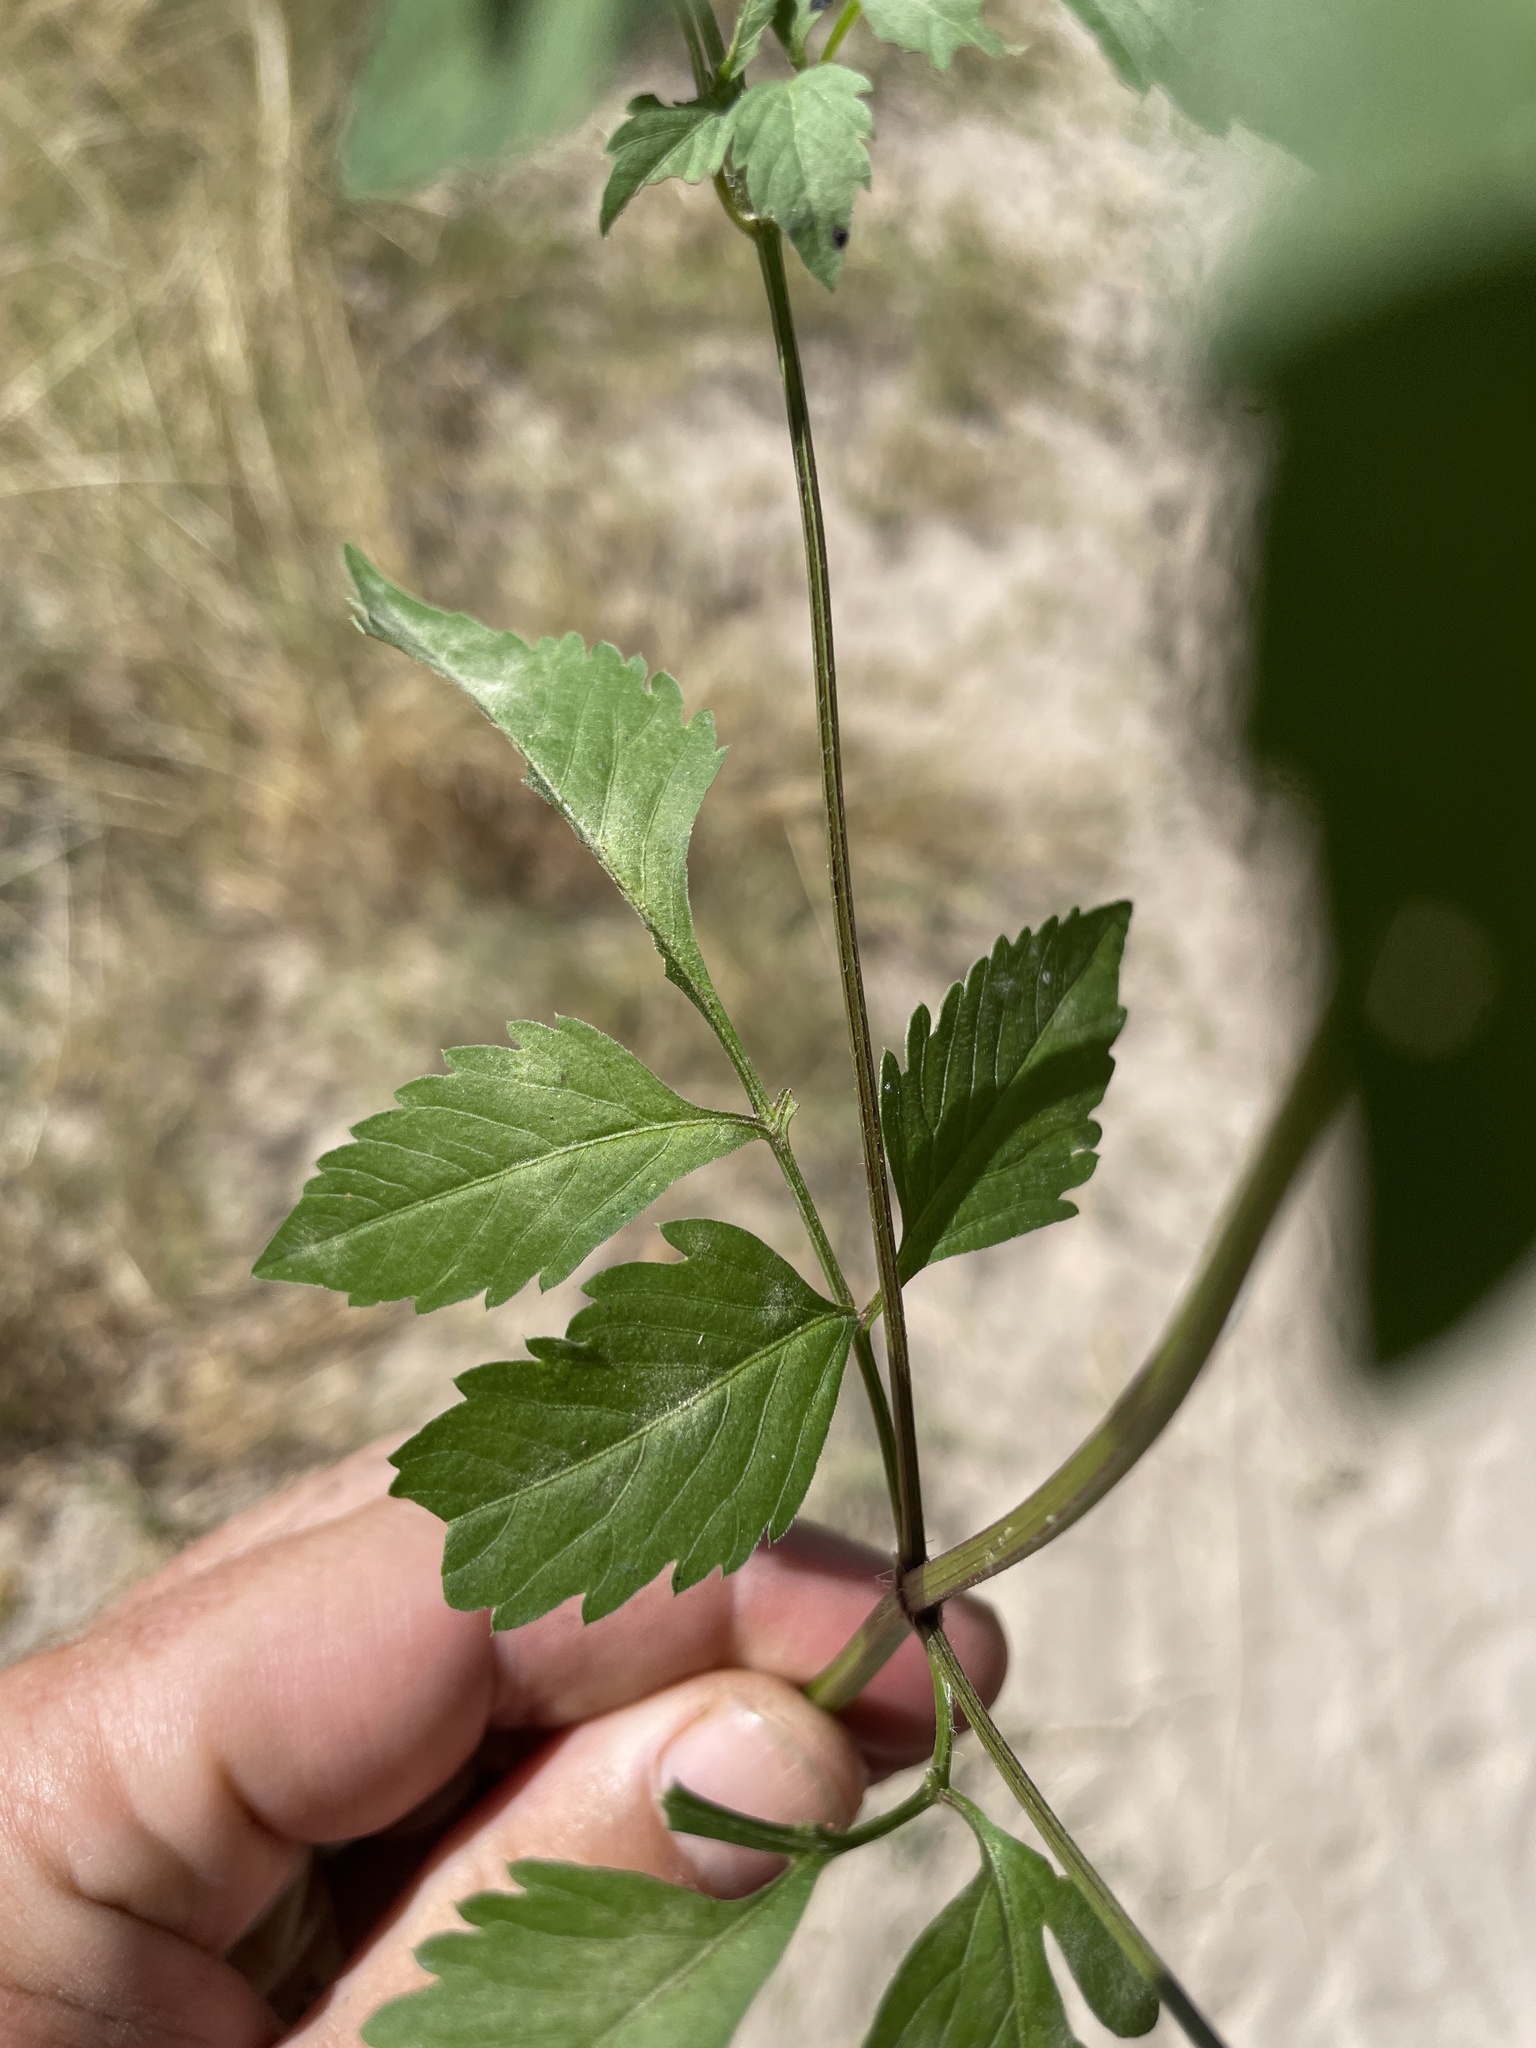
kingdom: Plantae
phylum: Tracheophyta
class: Magnoliopsida
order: Asterales
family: Asteraceae
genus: Bidens
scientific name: Bidens pilosa
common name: Black-jack
